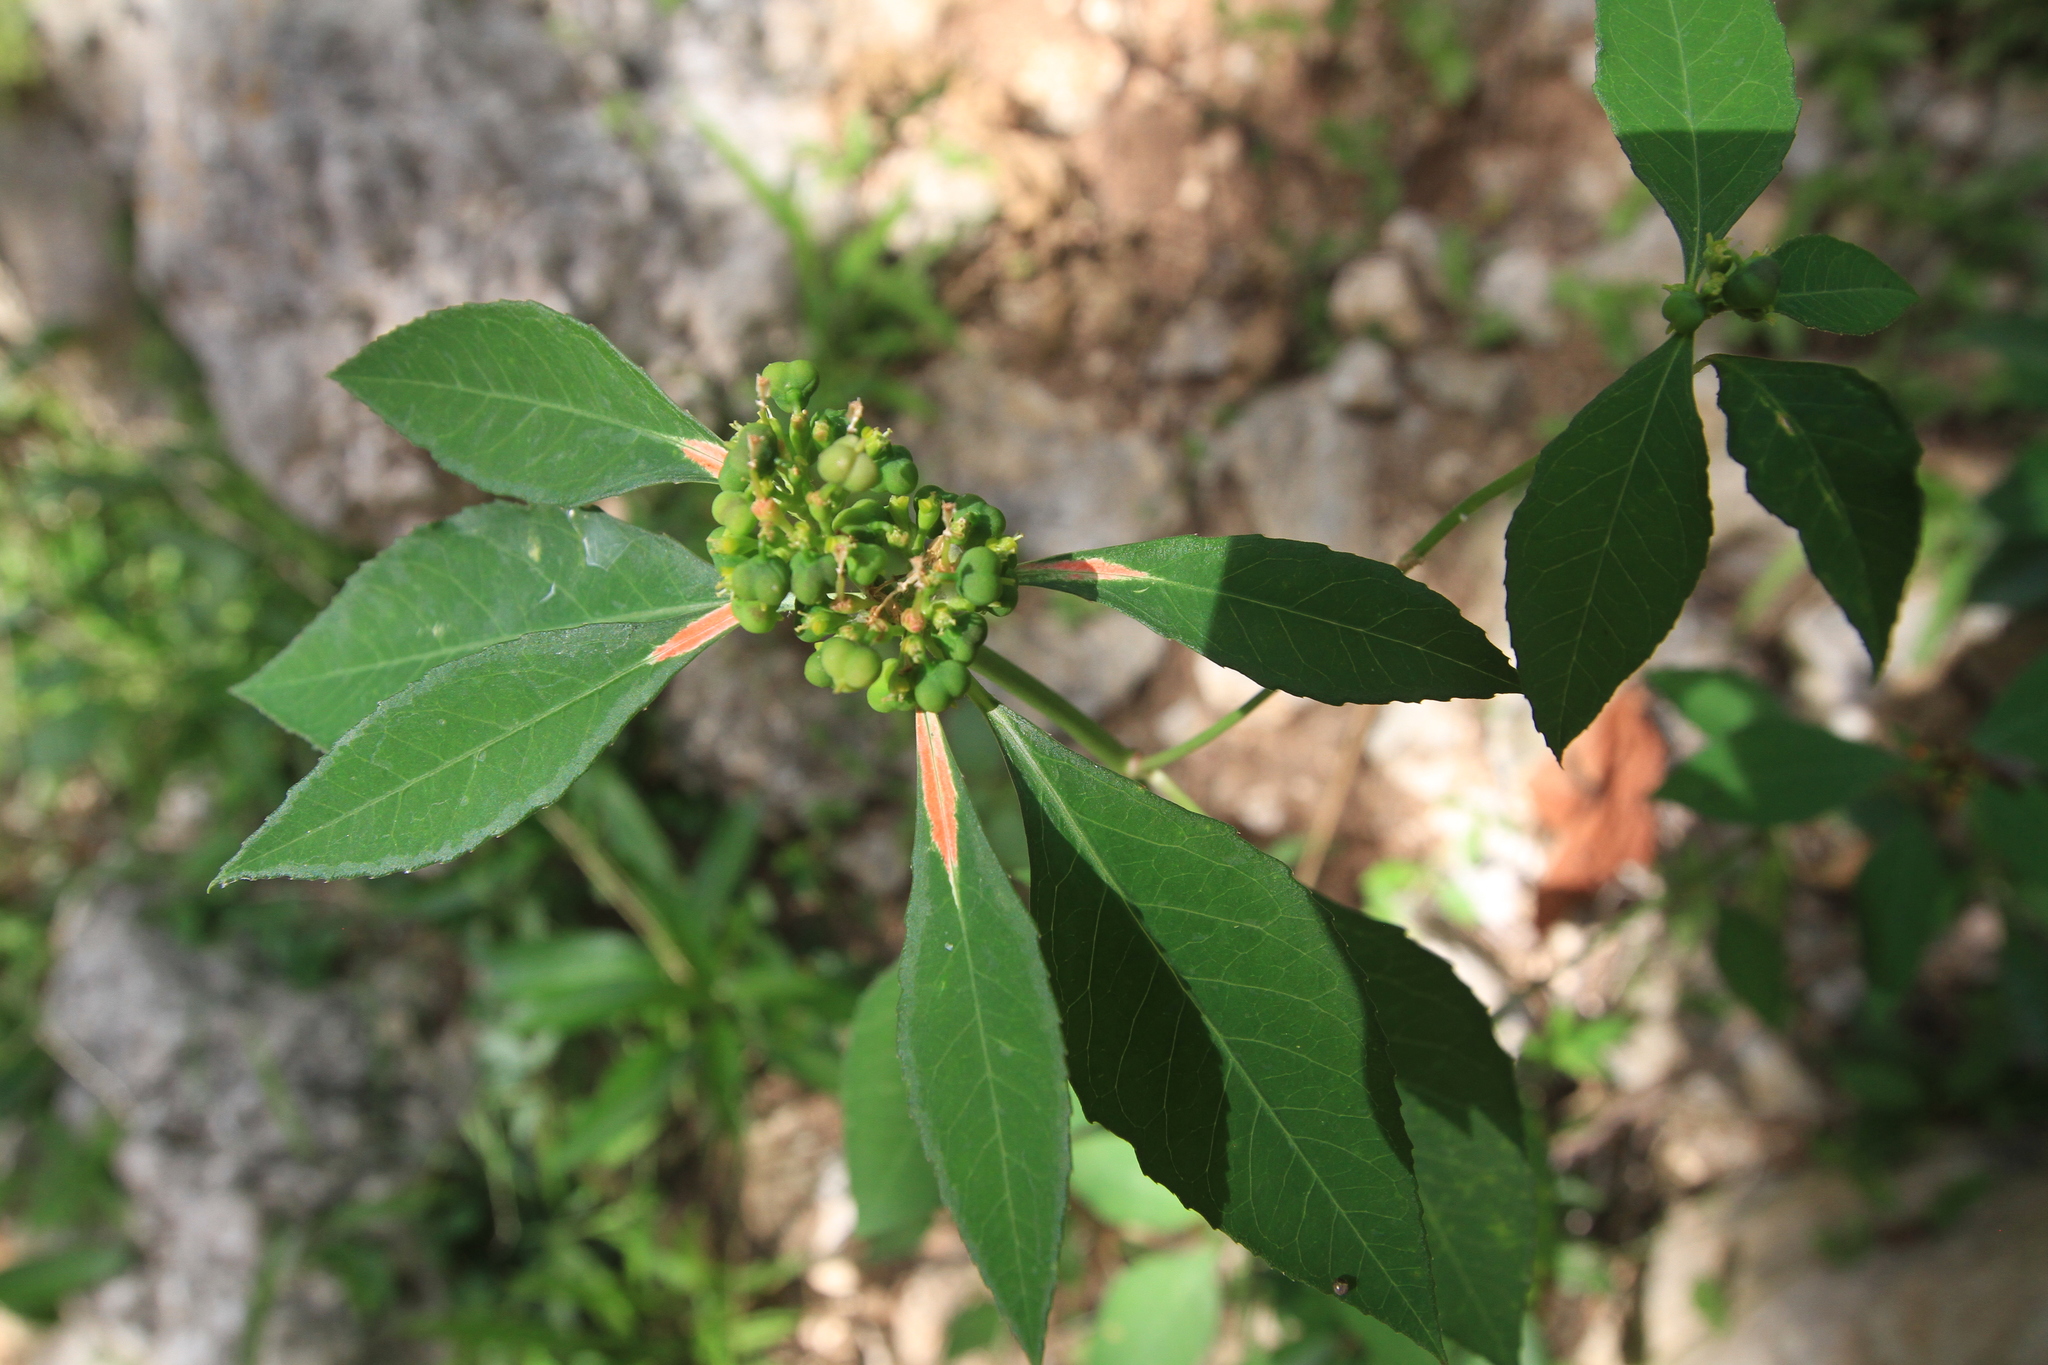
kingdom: Plantae
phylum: Tracheophyta
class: Magnoliopsida
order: Malpighiales
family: Euphorbiaceae
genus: Euphorbia
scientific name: Euphorbia heterophylla
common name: Mexican fireplant
